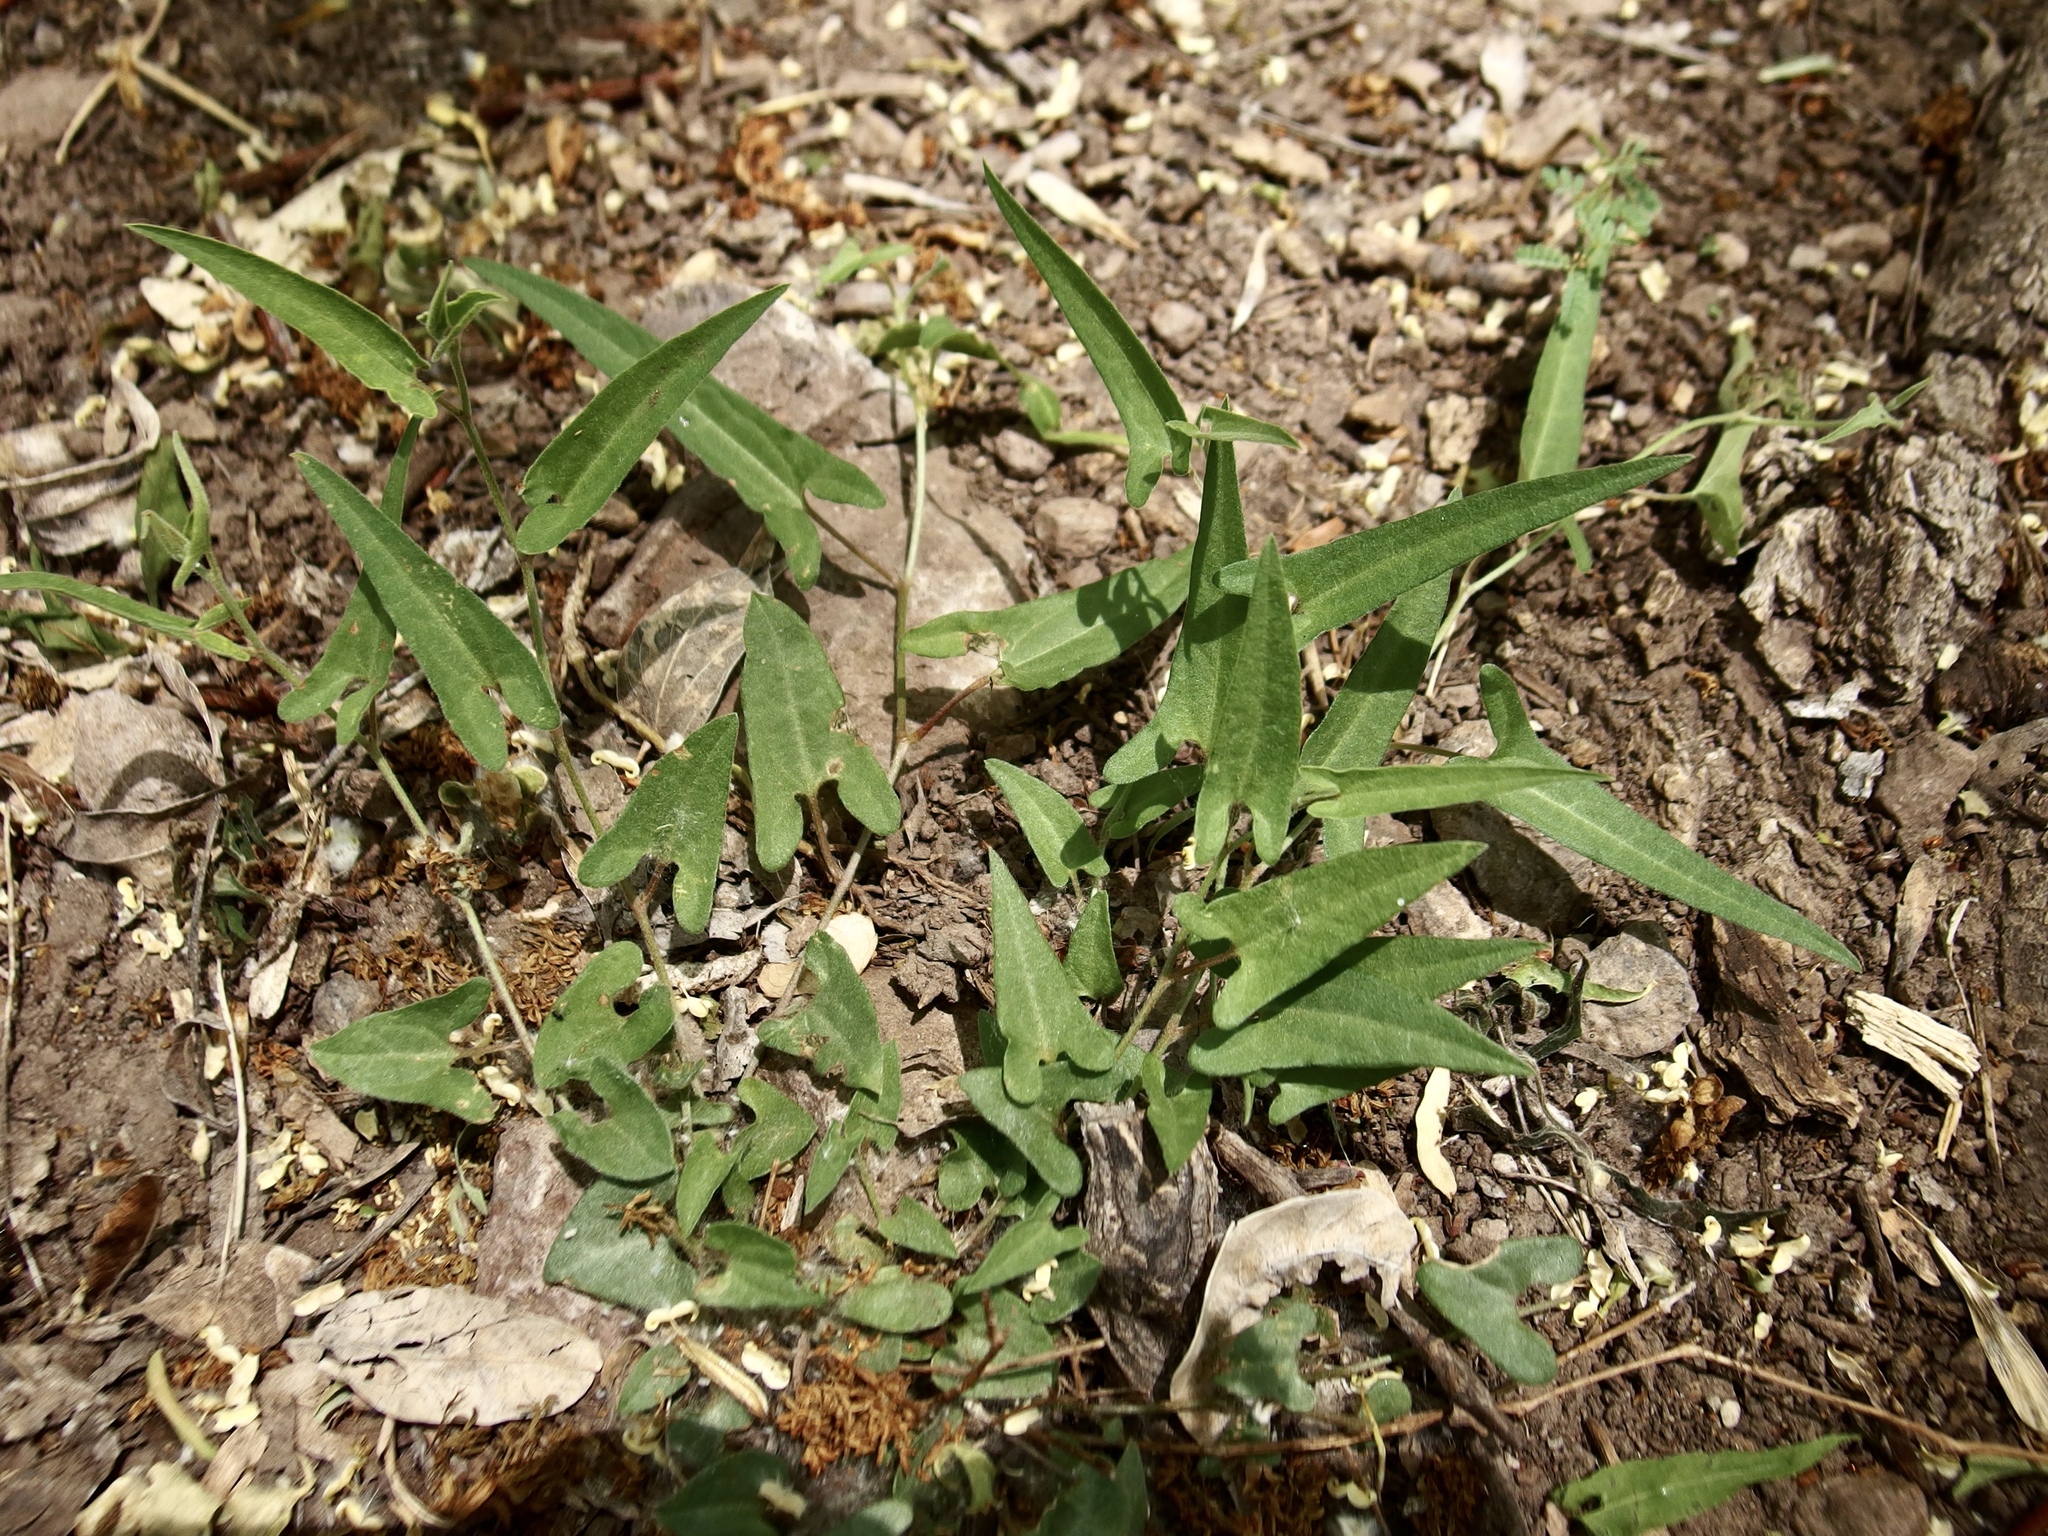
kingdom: Plantae
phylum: Tracheophyta
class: Magnoliopsida
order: Piperales
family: Aristolochiaceae
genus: Aristolochia
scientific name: Aristolochia watsonii
